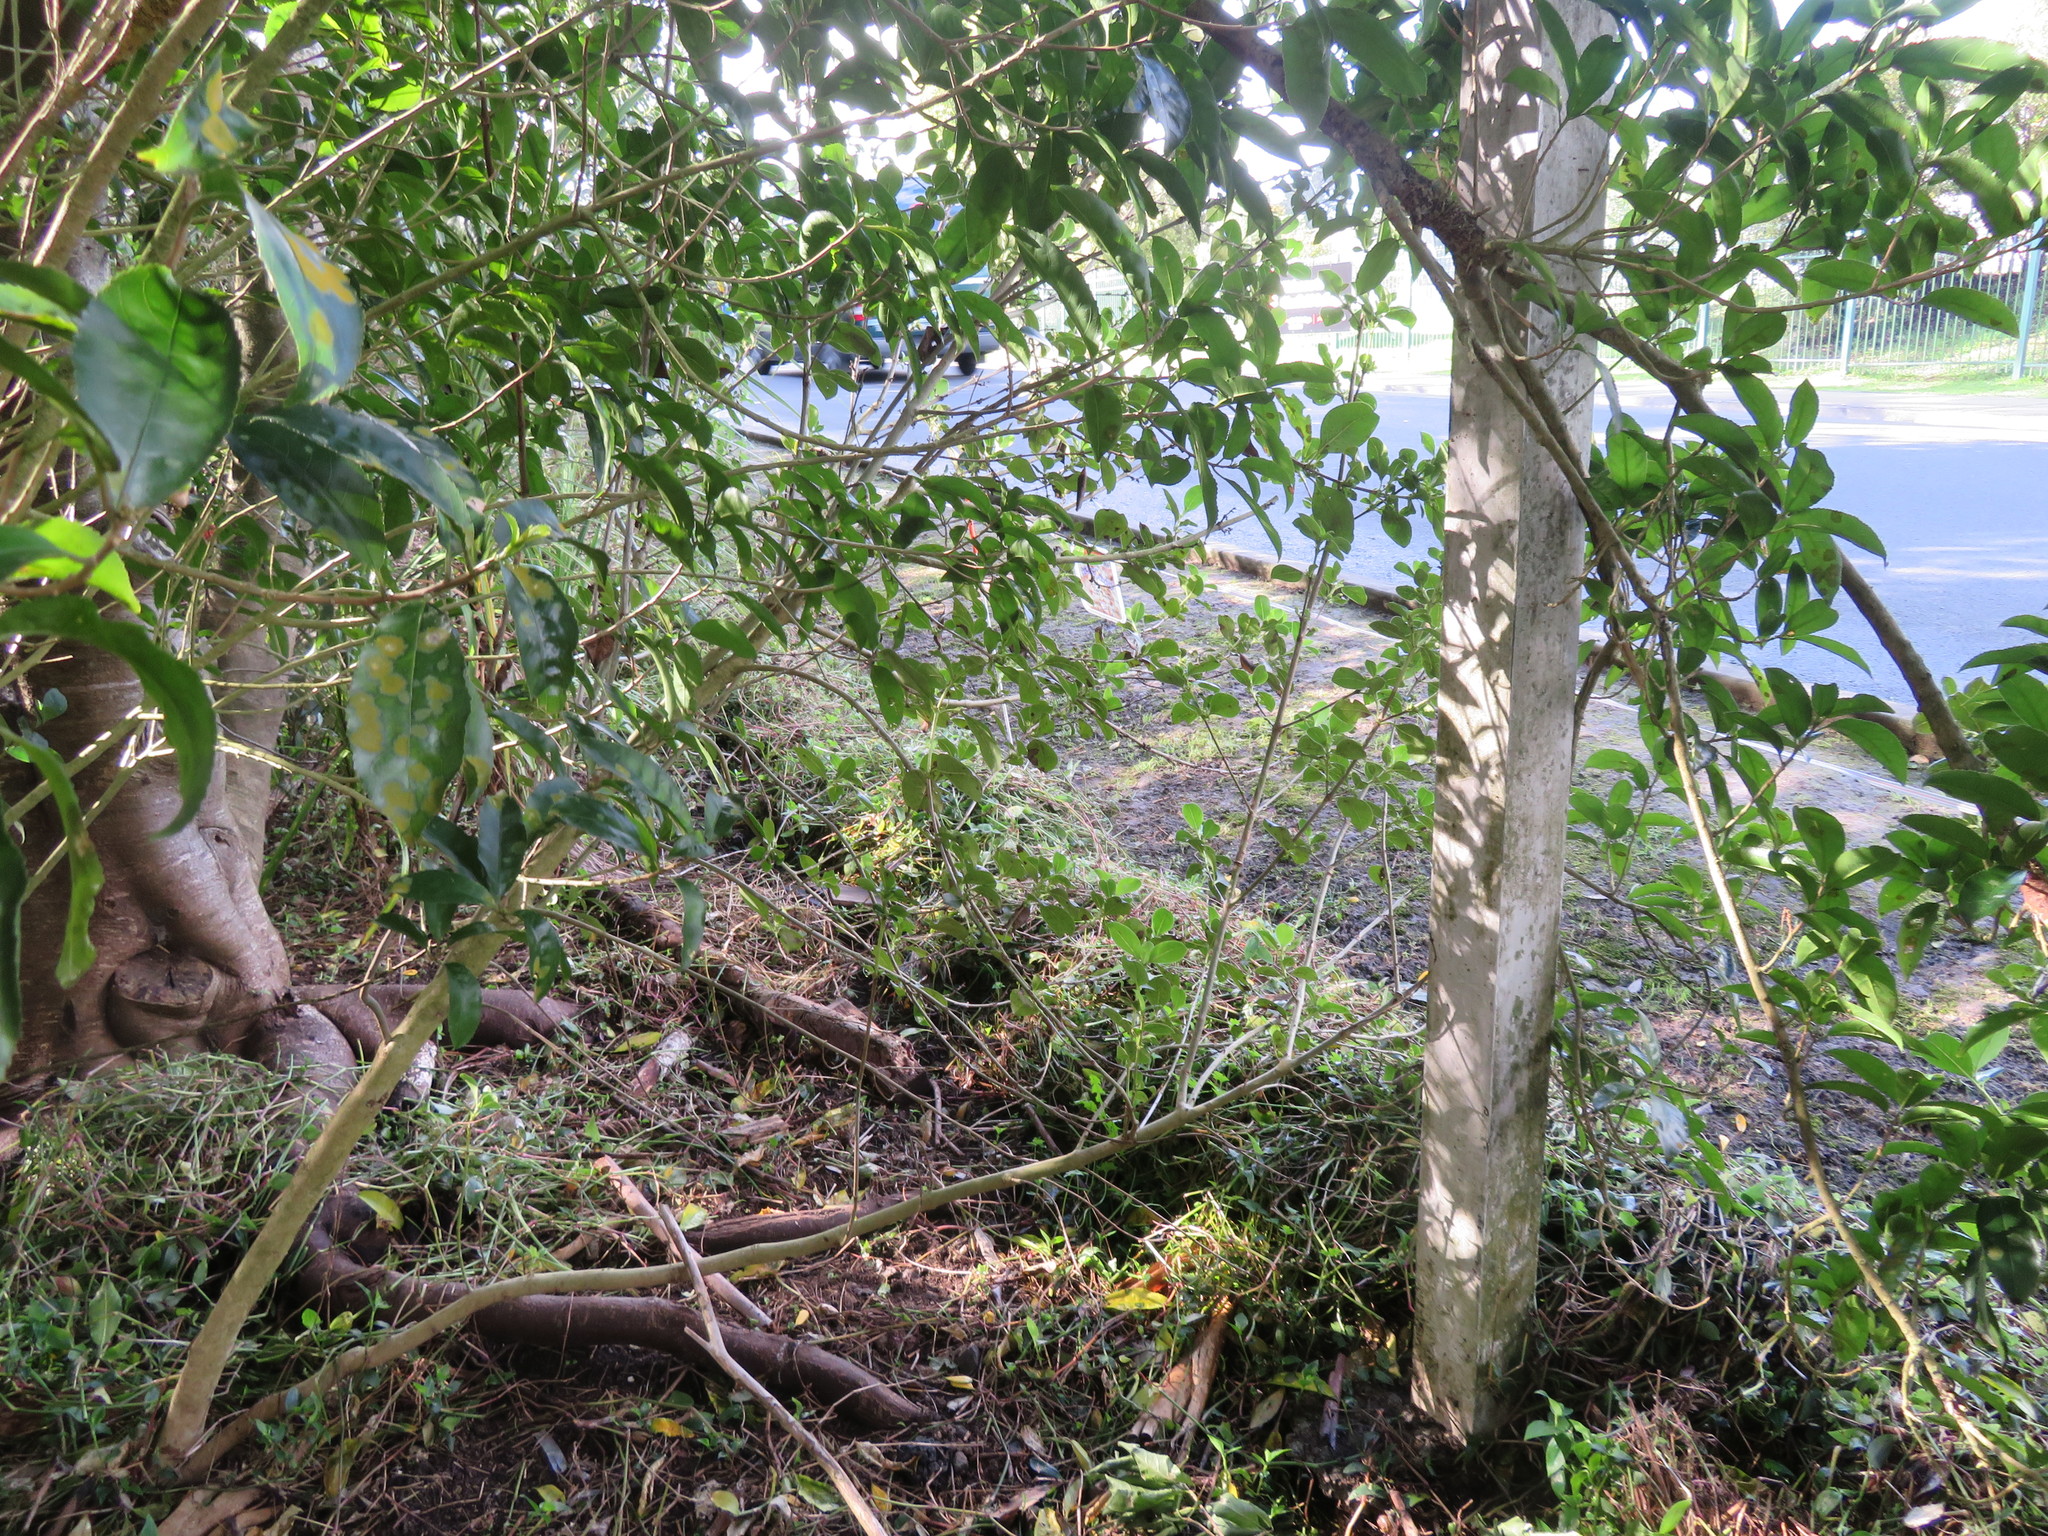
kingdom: Plantae
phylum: Tracheophyta
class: Magnoliopsida
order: Malpighiales
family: Violaceae
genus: Melicytus
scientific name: Melicytus ramiflorus
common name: Mahoe
